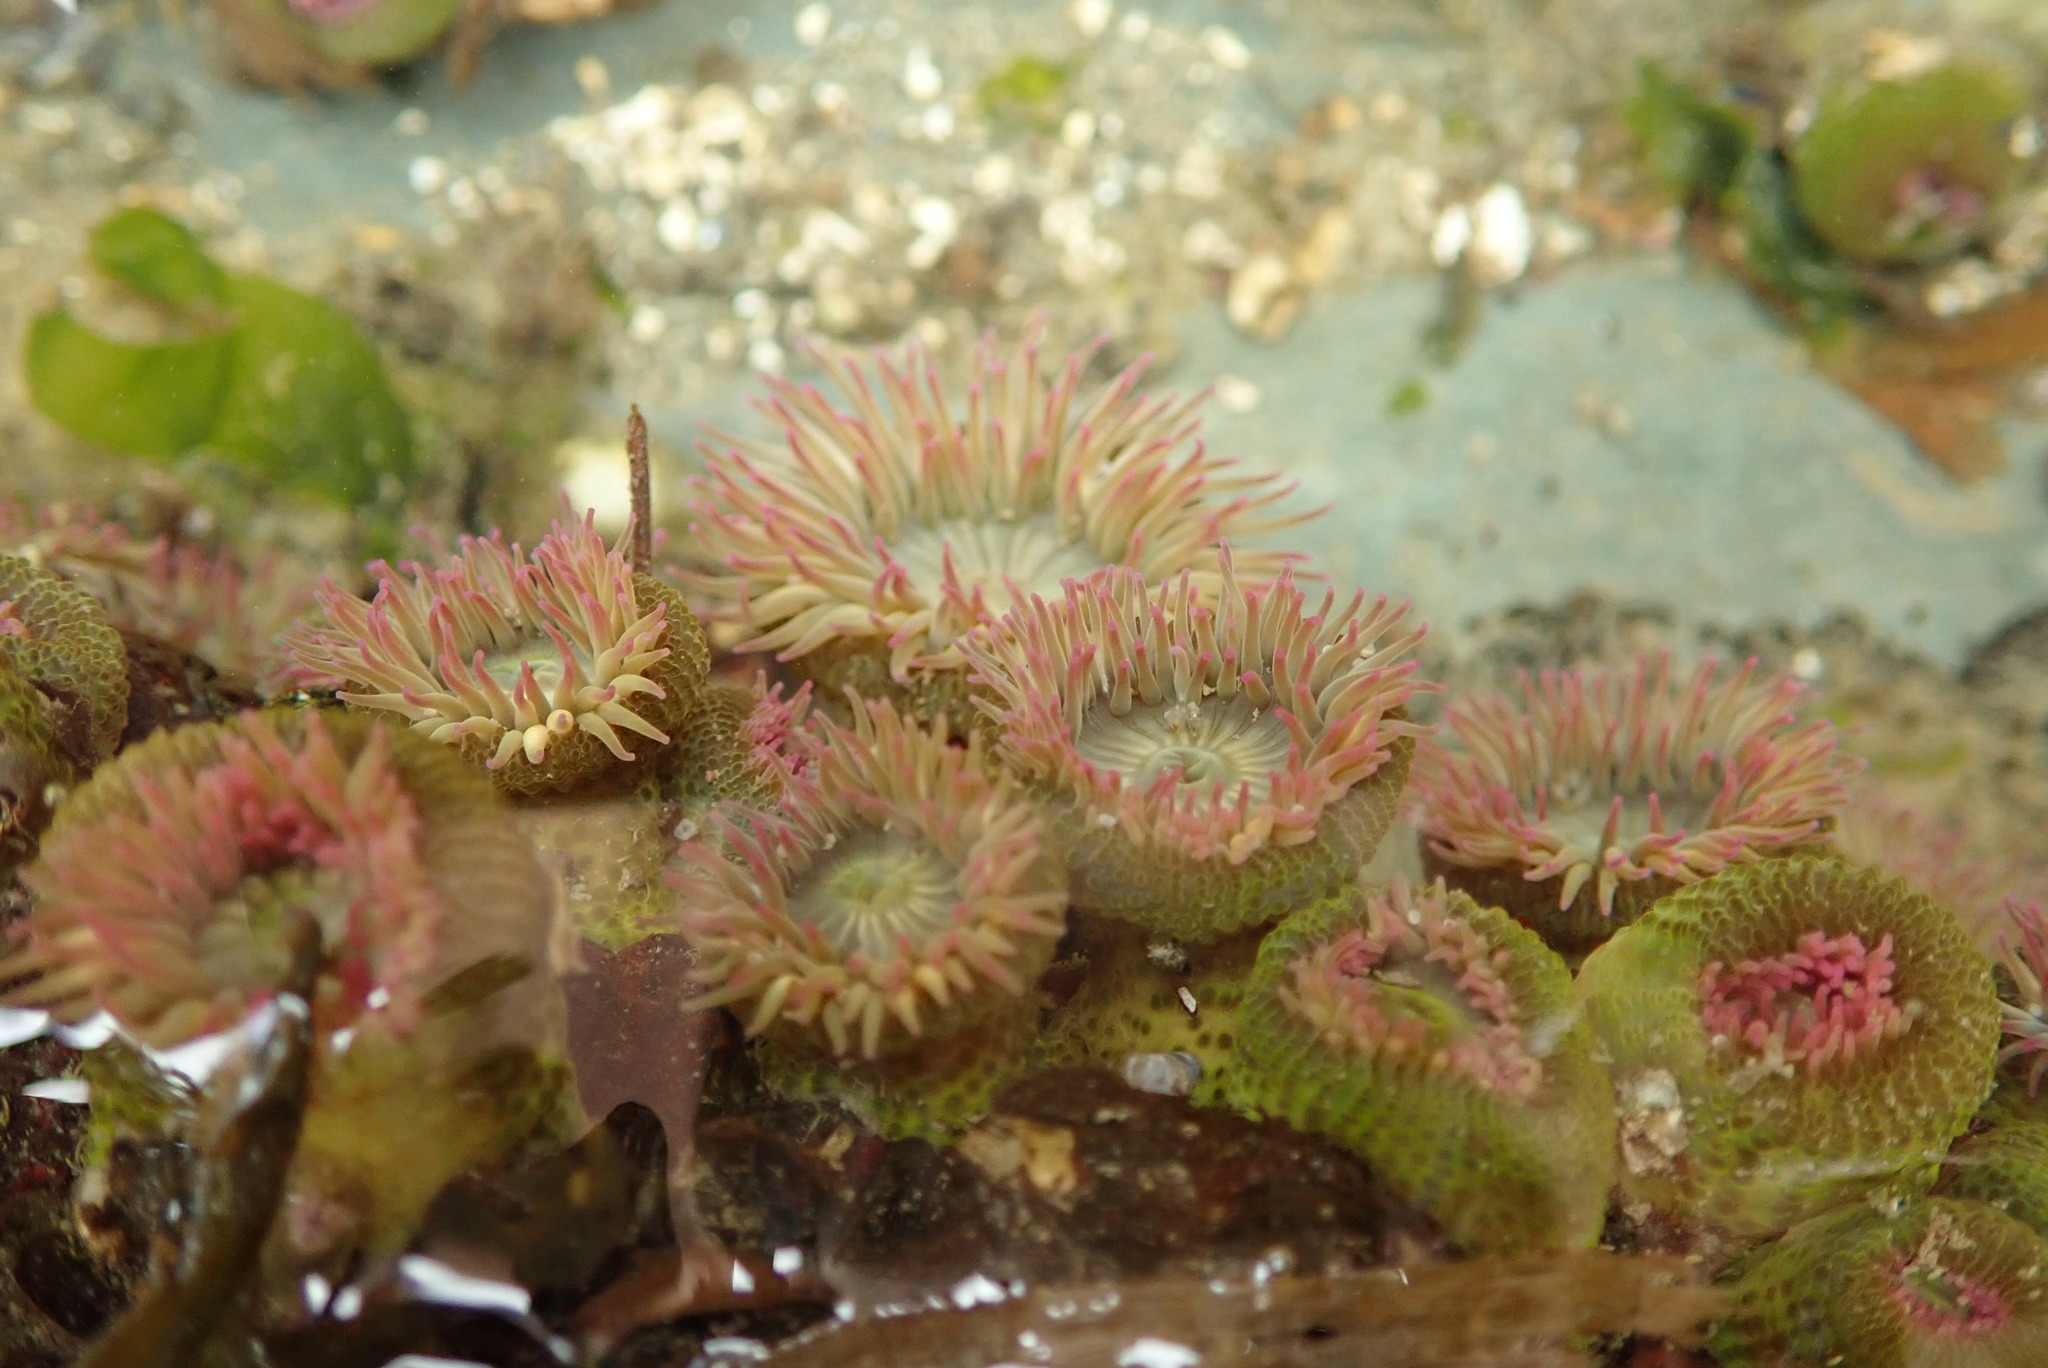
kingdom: Animalia
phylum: Cnidaria
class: Anthozoa
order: Actiniaria
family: Actiniidae
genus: Anthopleura
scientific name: Anthopleura elegantissima
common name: Clonal anemone
